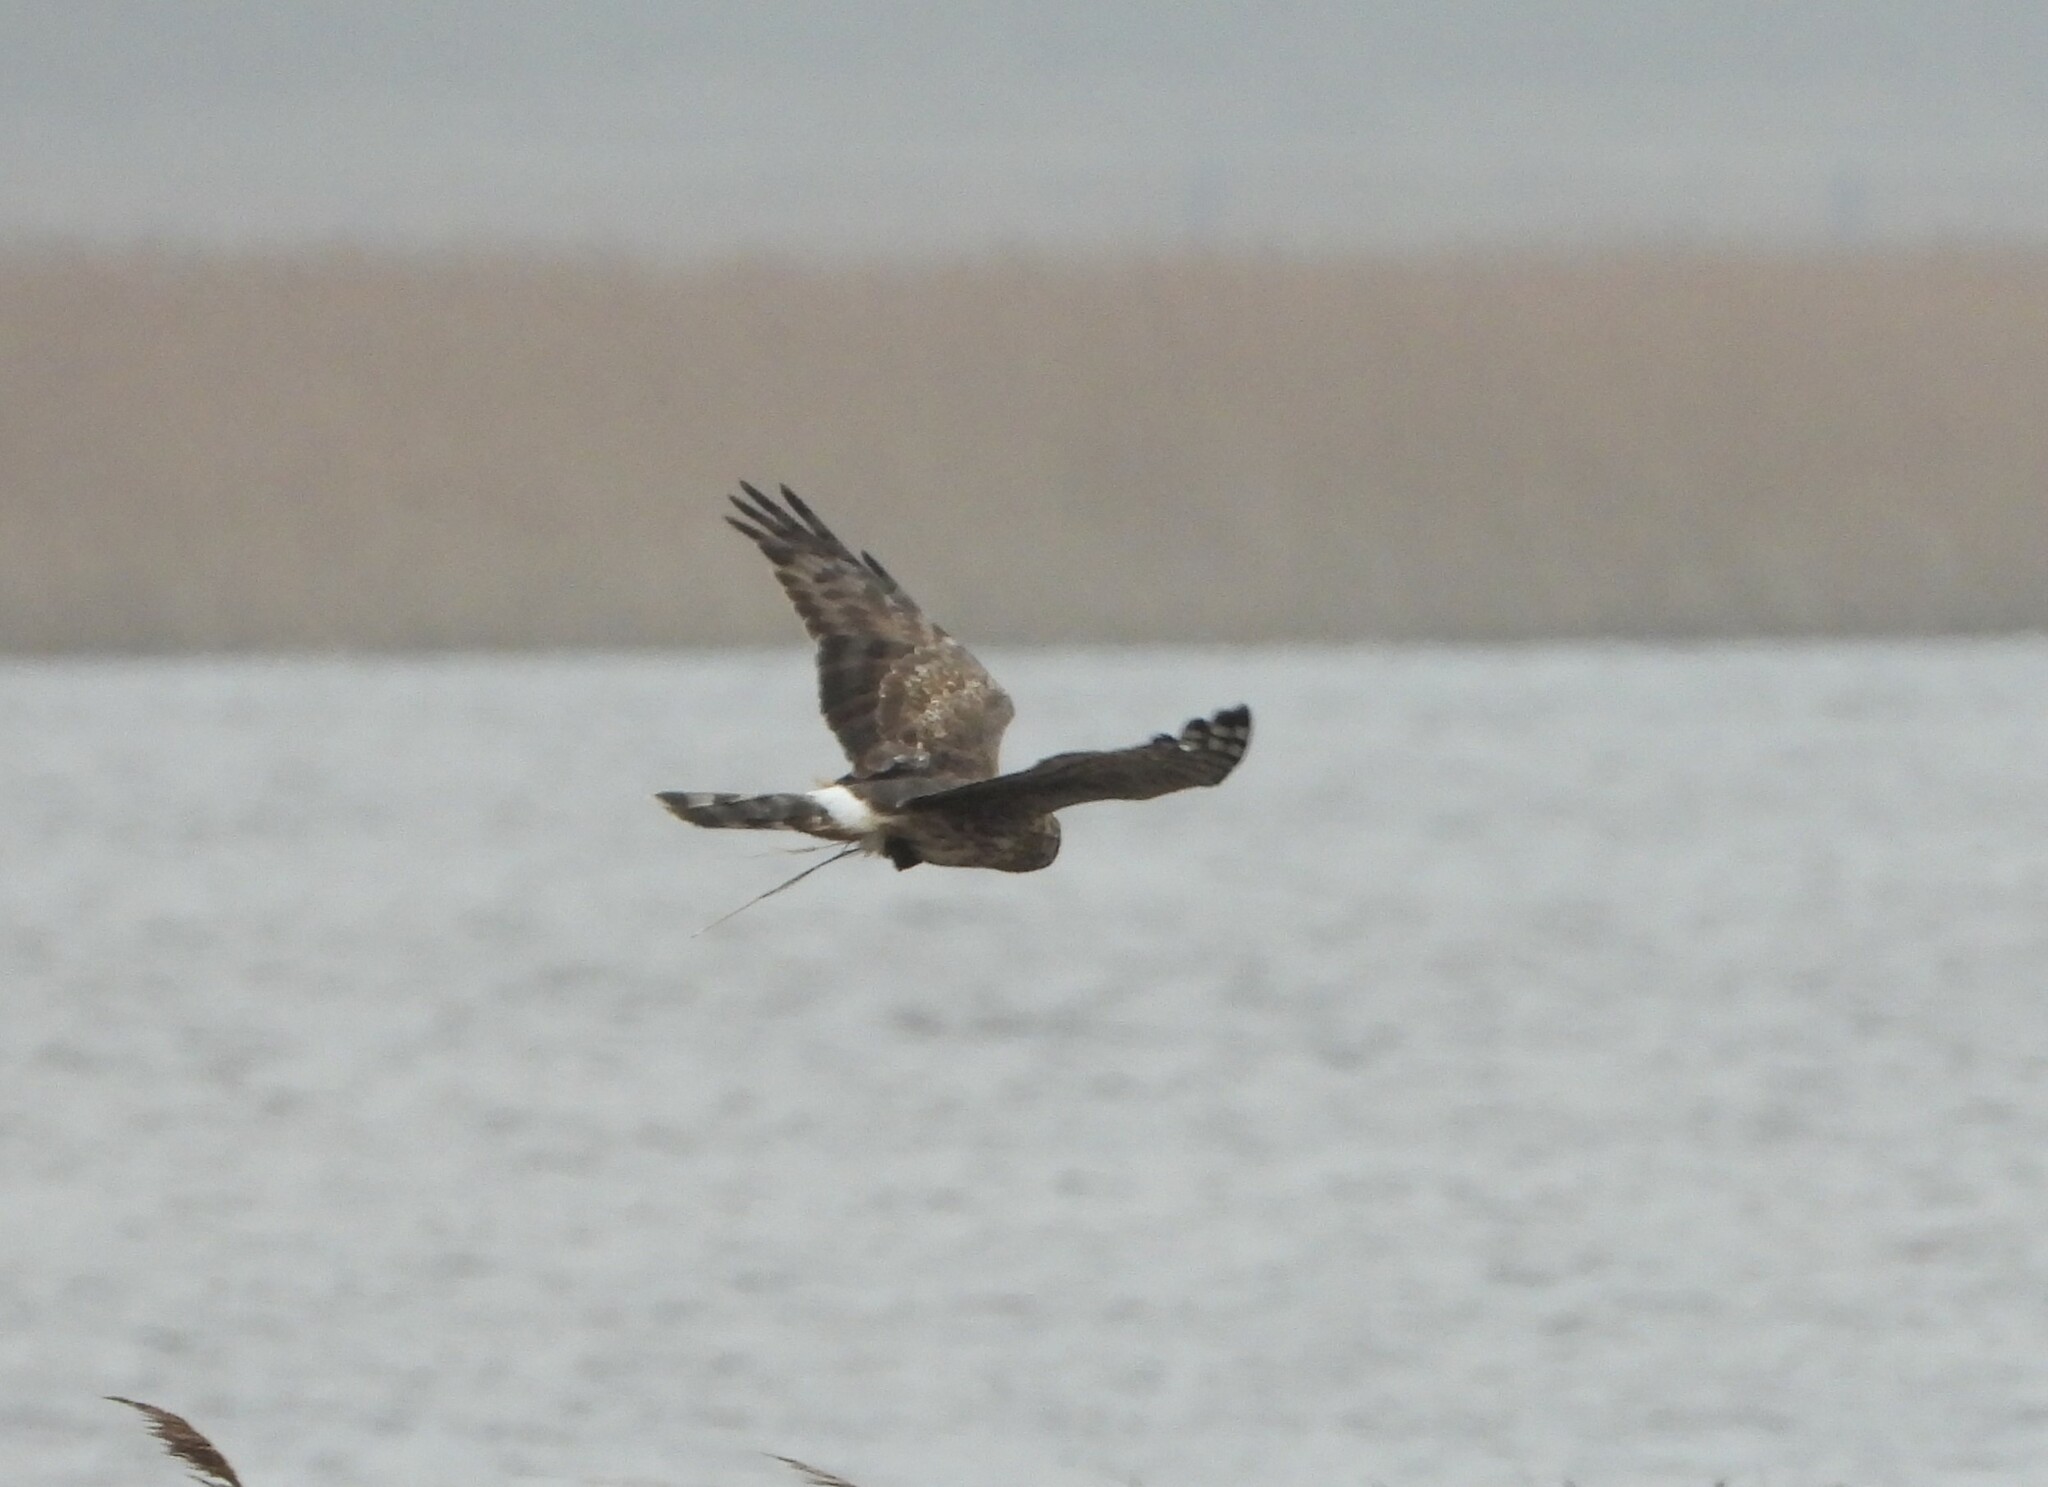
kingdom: Animalia
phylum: Chordata
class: Aves
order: Accipitriformes
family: Accipitridae
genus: Circus
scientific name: Circus cyaneus
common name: Hen harrier
